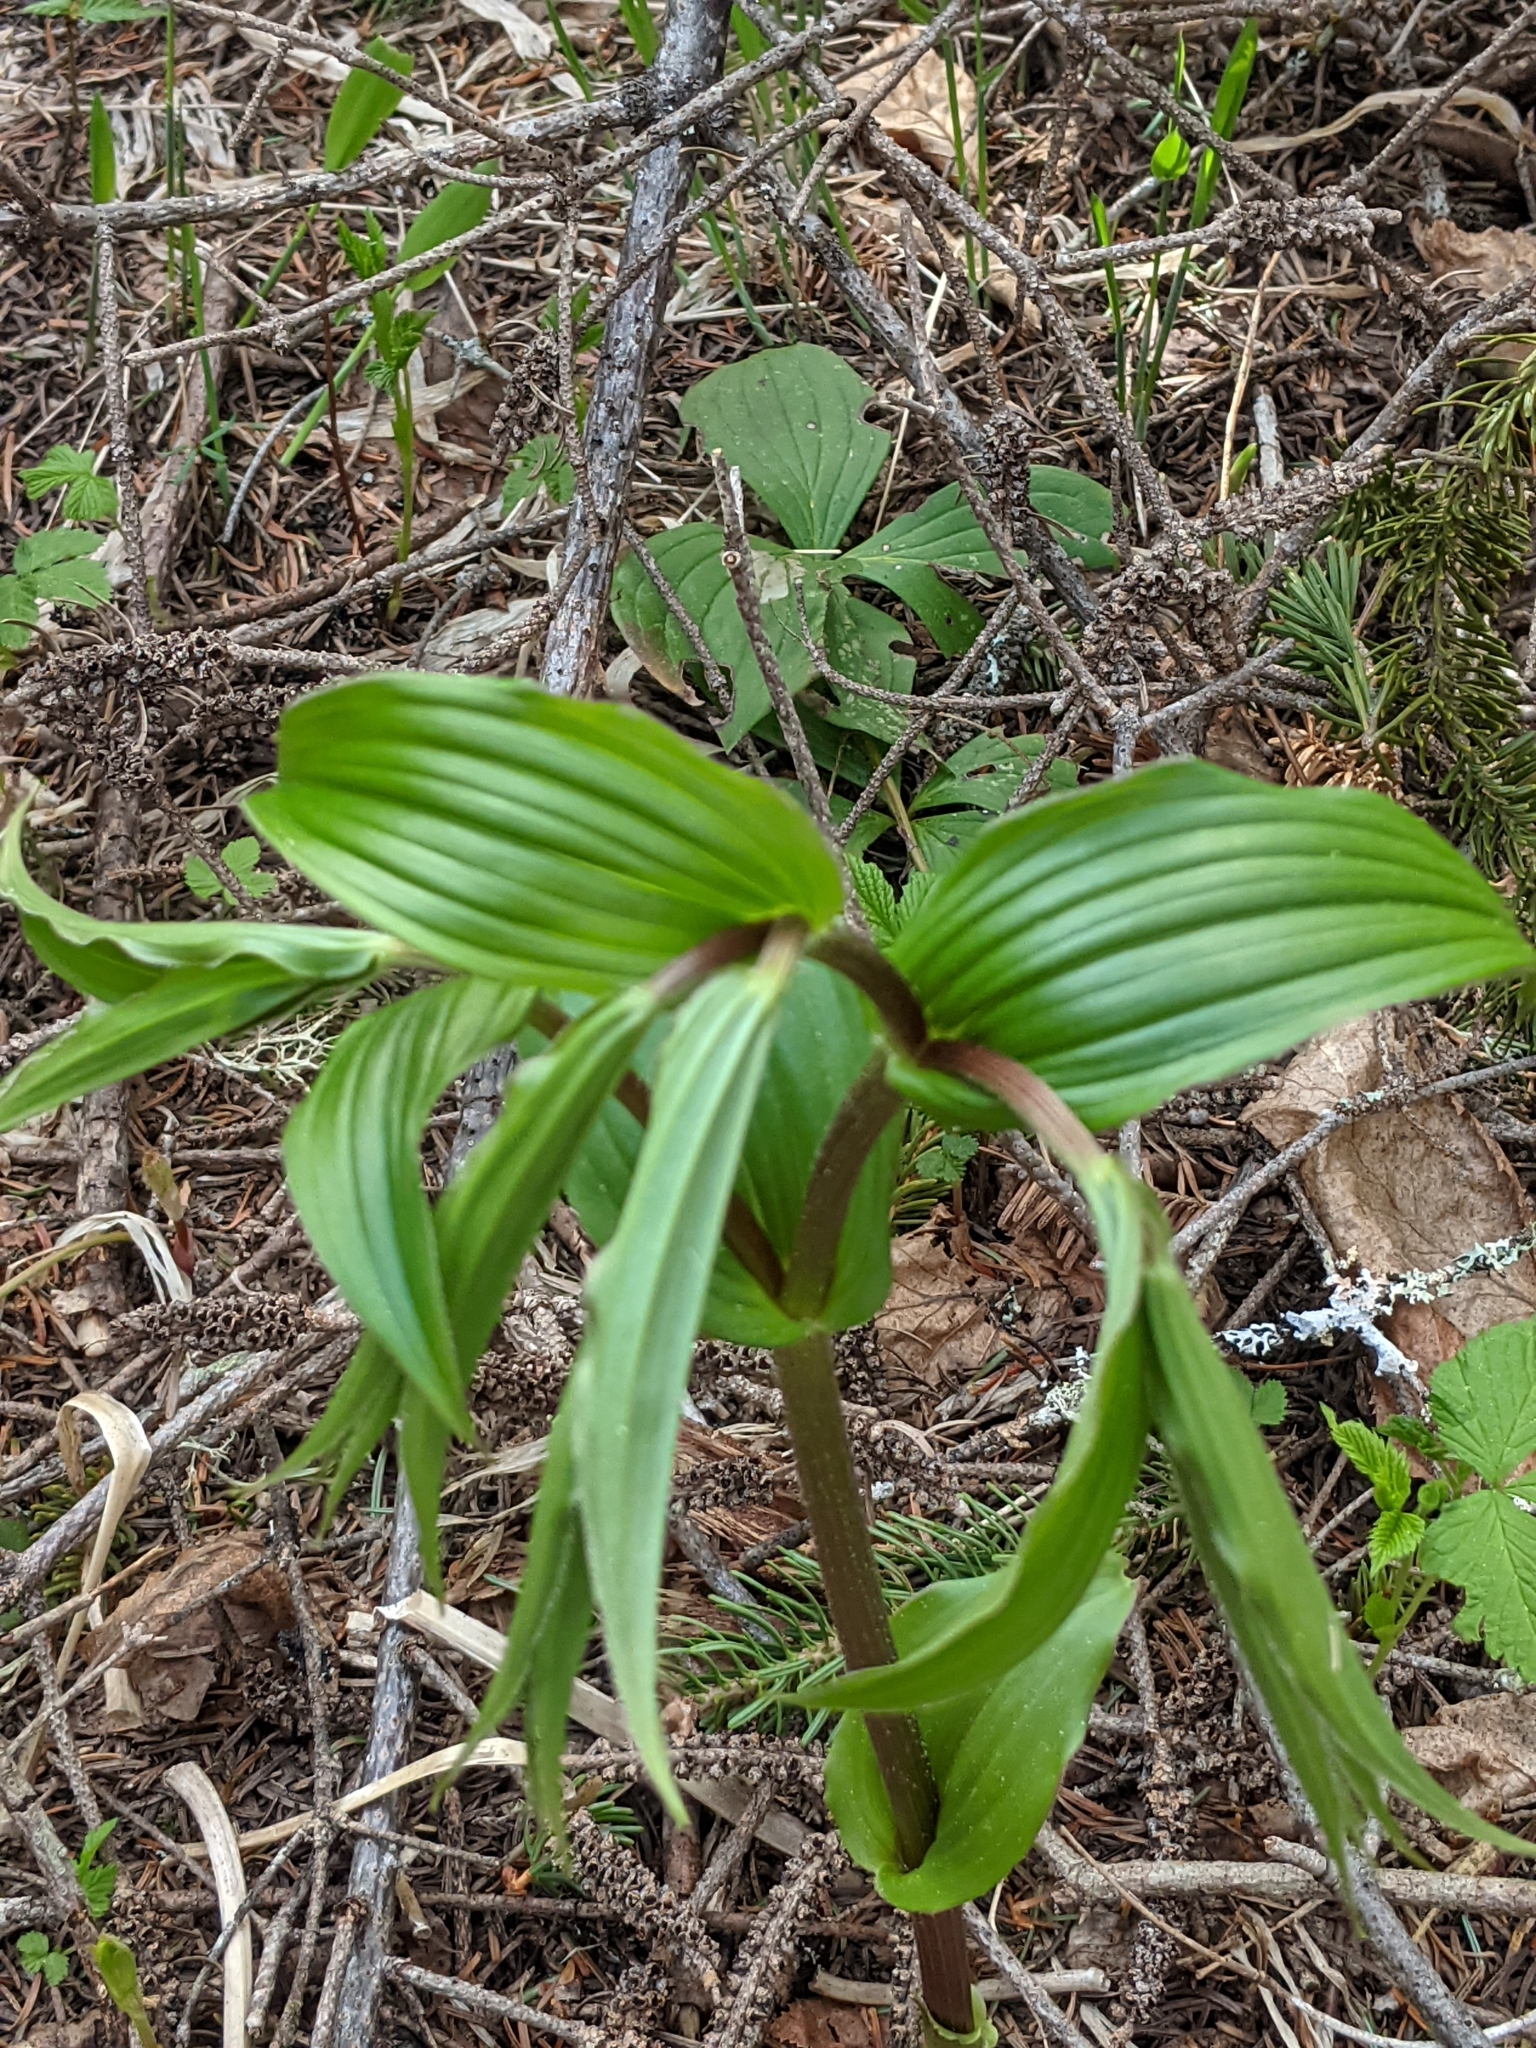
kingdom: Plantae
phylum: Tracheophyta
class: Liliopsida
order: Liliales
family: Liliaceae
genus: Streptopus
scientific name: Streptopus lanceolatus
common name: Rose mandarin
